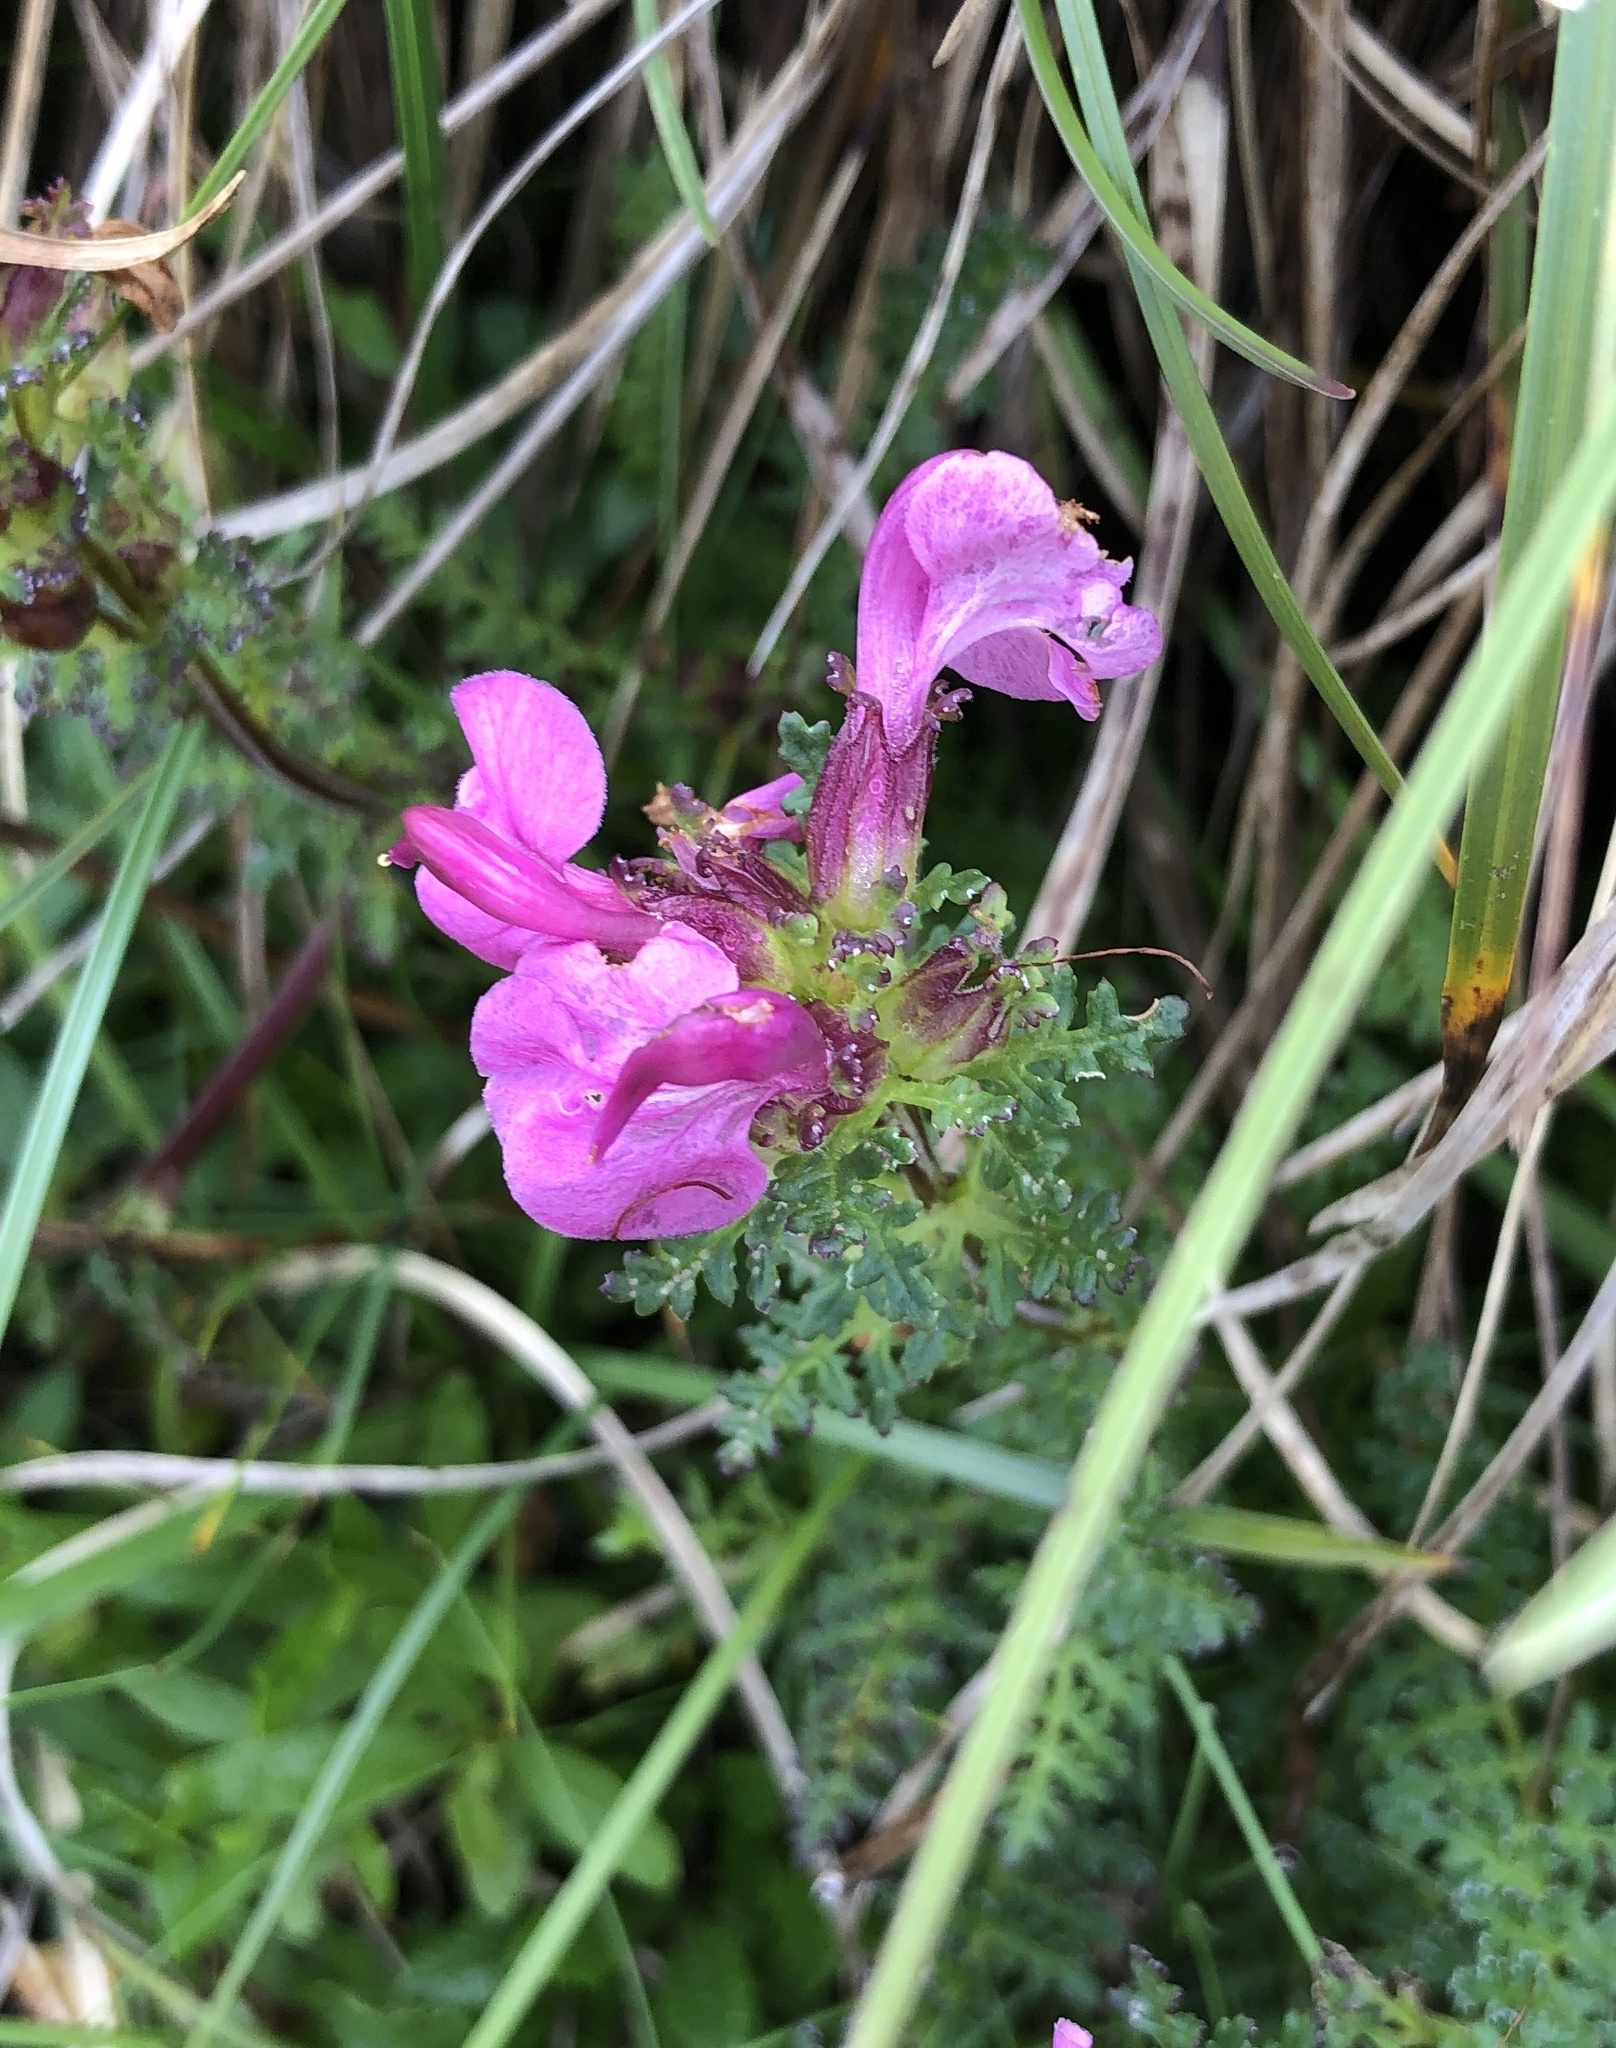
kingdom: Plantae
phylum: Tracheophyta
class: Magnoliopsida
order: Lamiales
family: Orobanchaceae
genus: Pedicularis
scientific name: Pedicularis rostratocapitata
